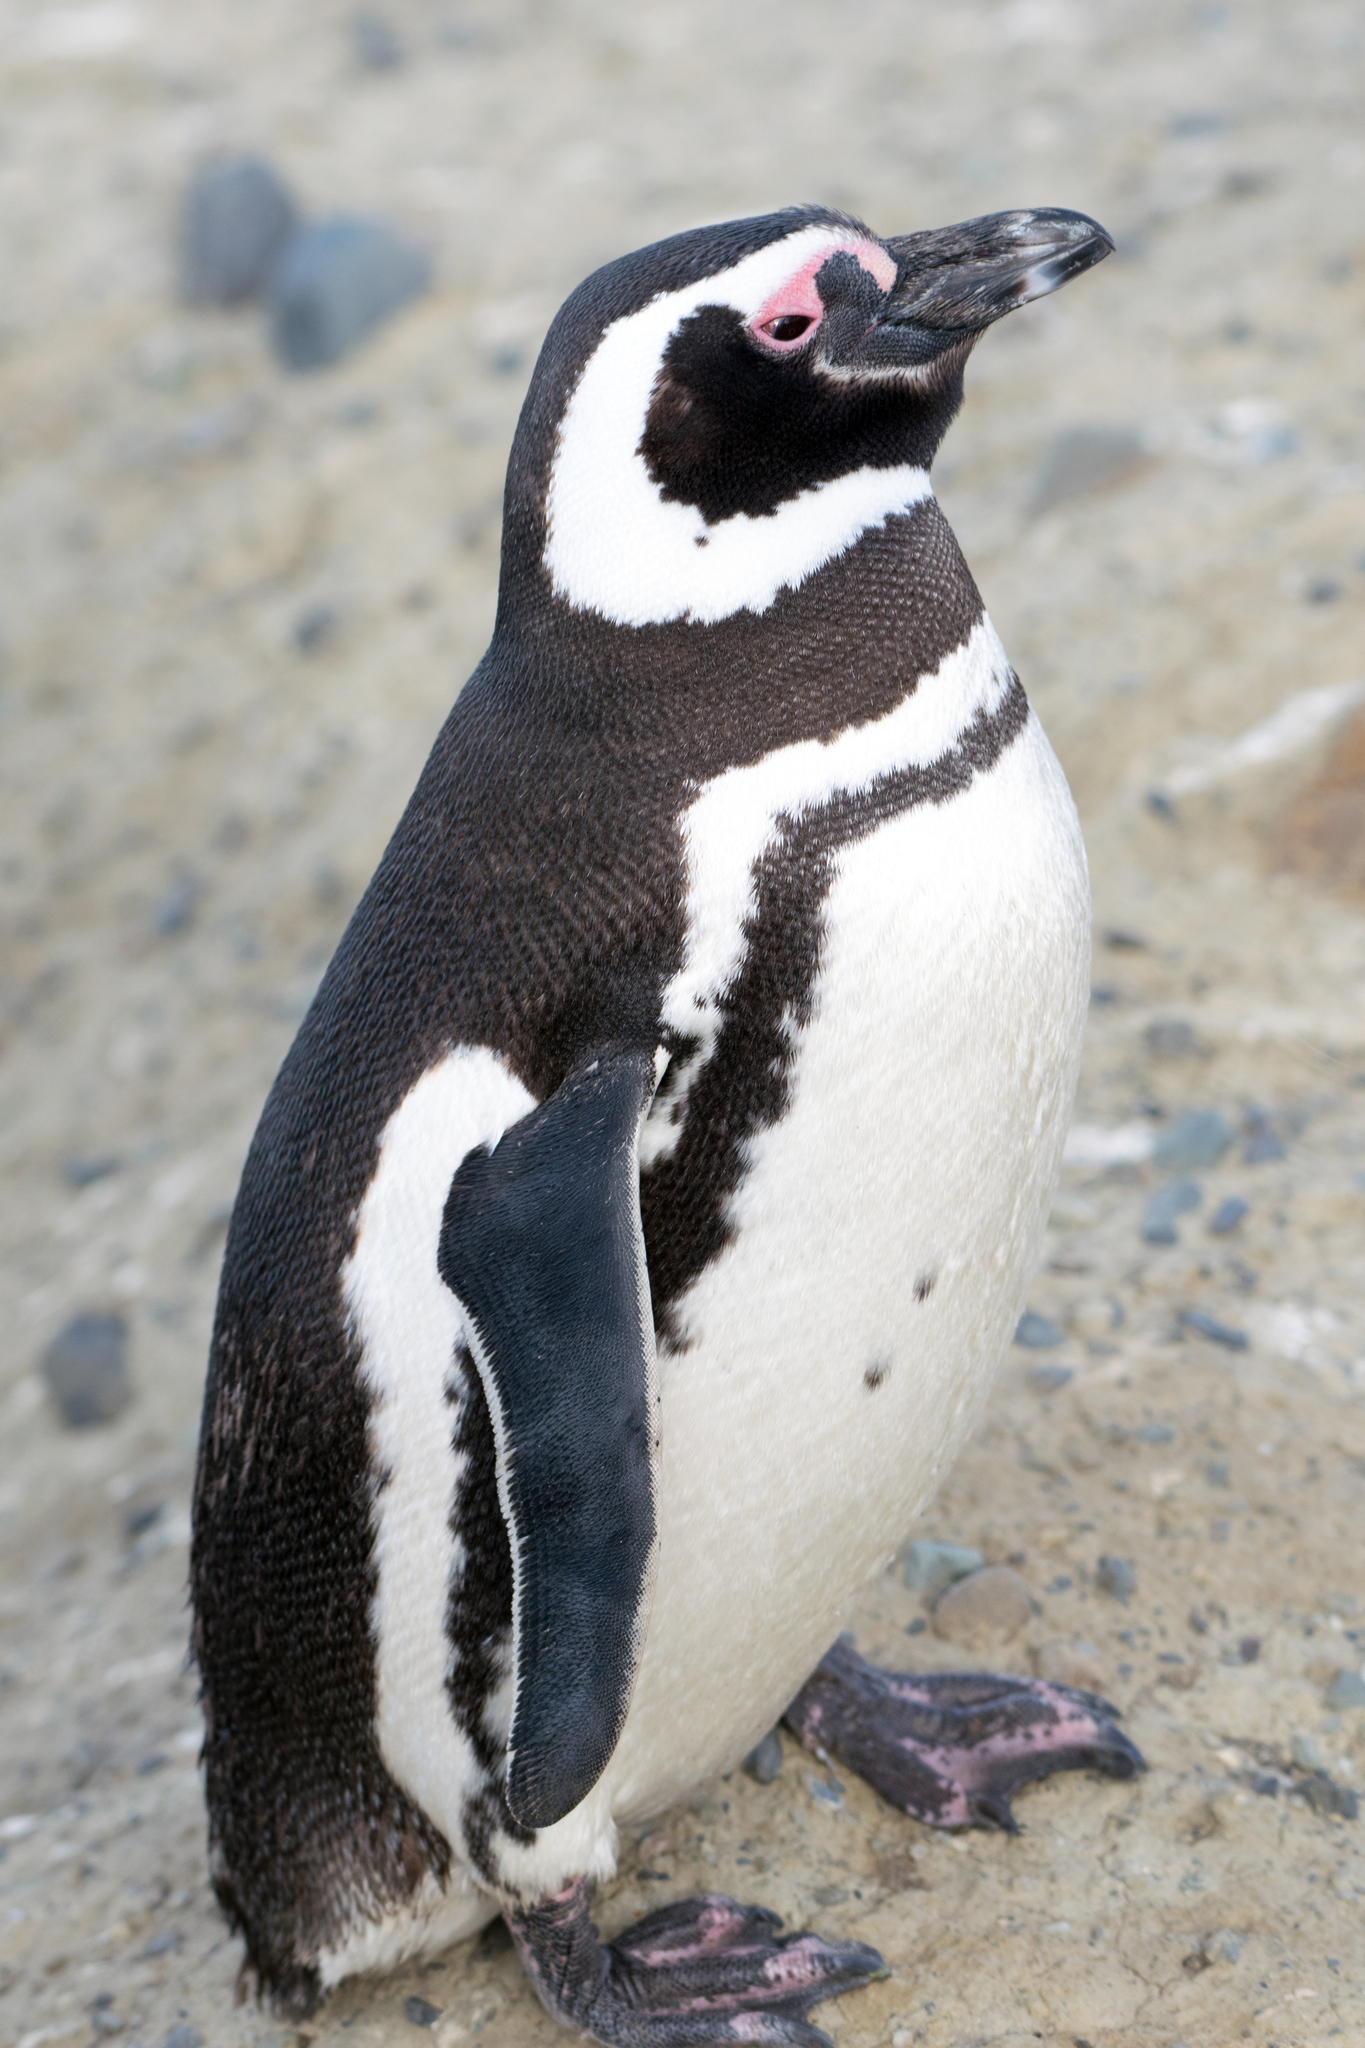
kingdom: Animalia
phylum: Chordata
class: Aves
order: Sphenisciformes
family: Spheniscidae
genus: Spheniscus
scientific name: Spheniscus magellanicus
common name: Magellanic penguin
